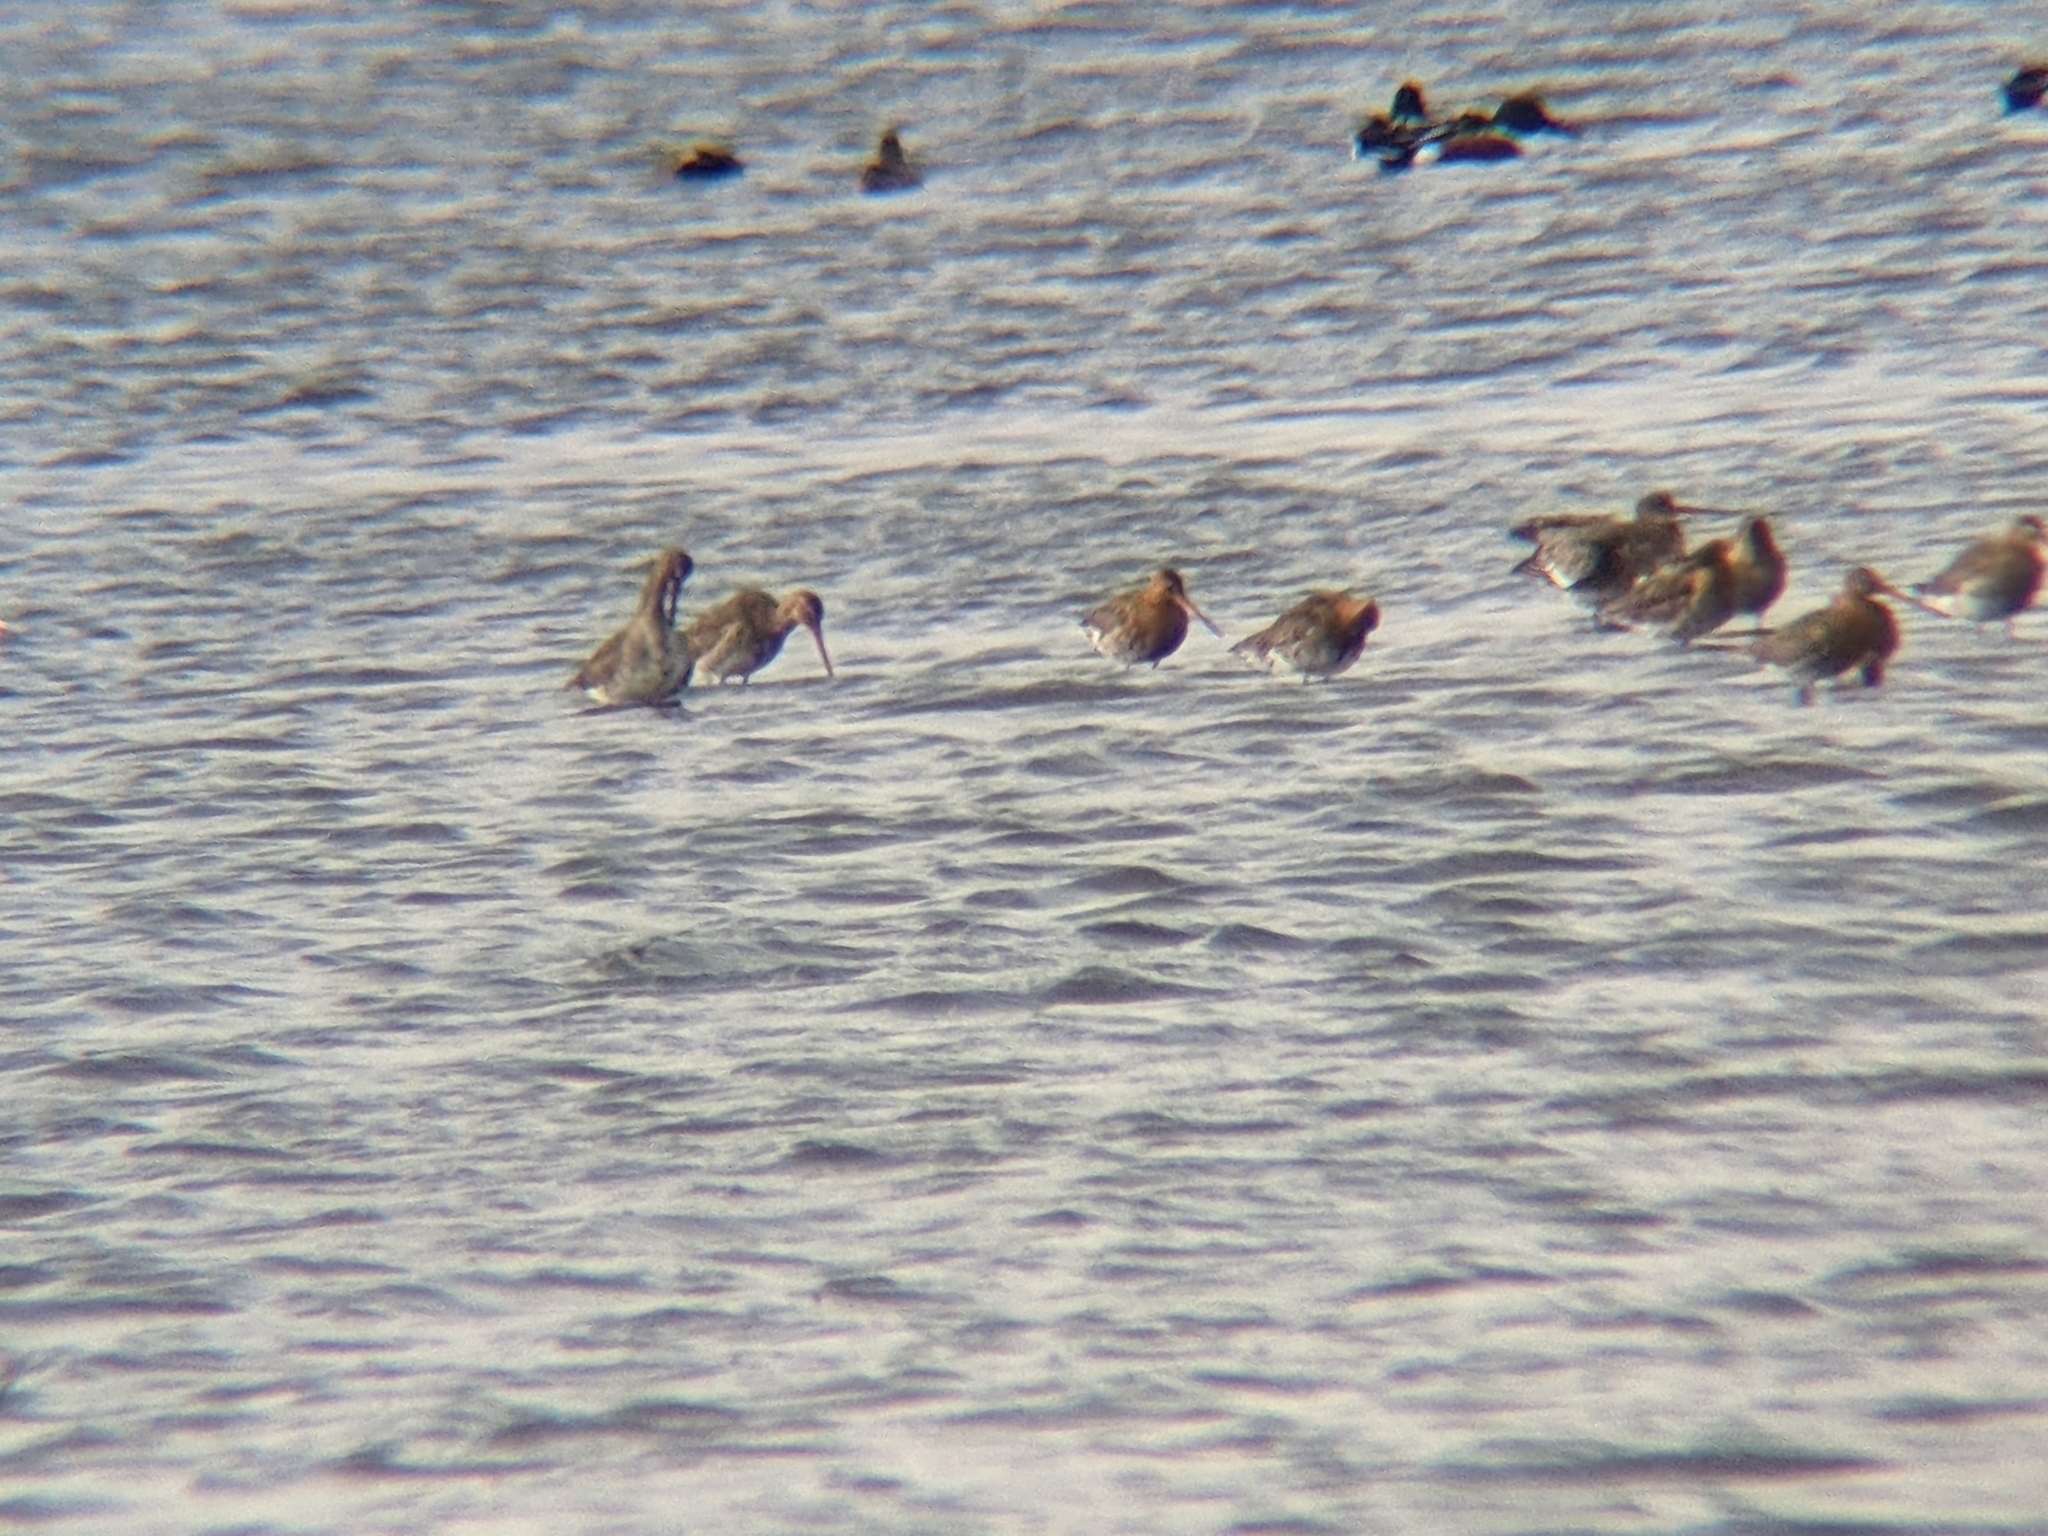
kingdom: Animalia
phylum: Chordata
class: Aves
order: Charadriiformes
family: Scolopacidae
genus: Limosa
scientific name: Limosa limosa
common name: Black-tailed godwit
